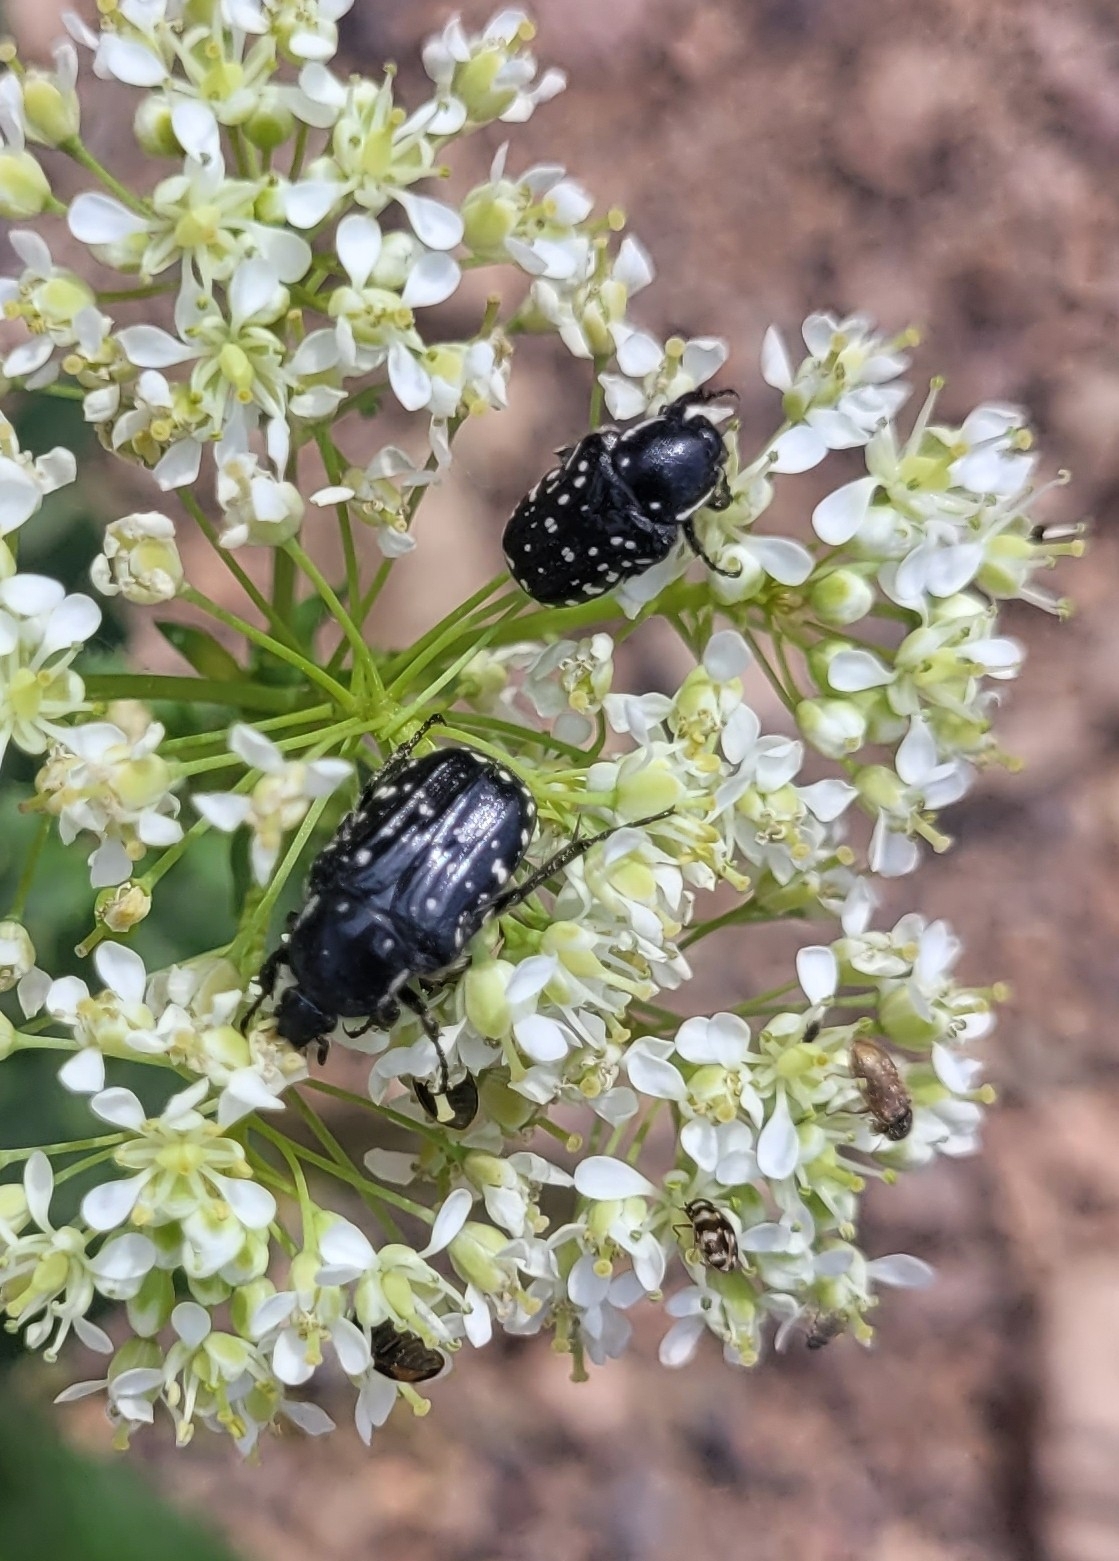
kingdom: Animalia
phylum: Arthropoda
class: Insecta
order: Coleoptera
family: Scarabaeidae
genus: Oxythyrea
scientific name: Oxythyrea cinctella
